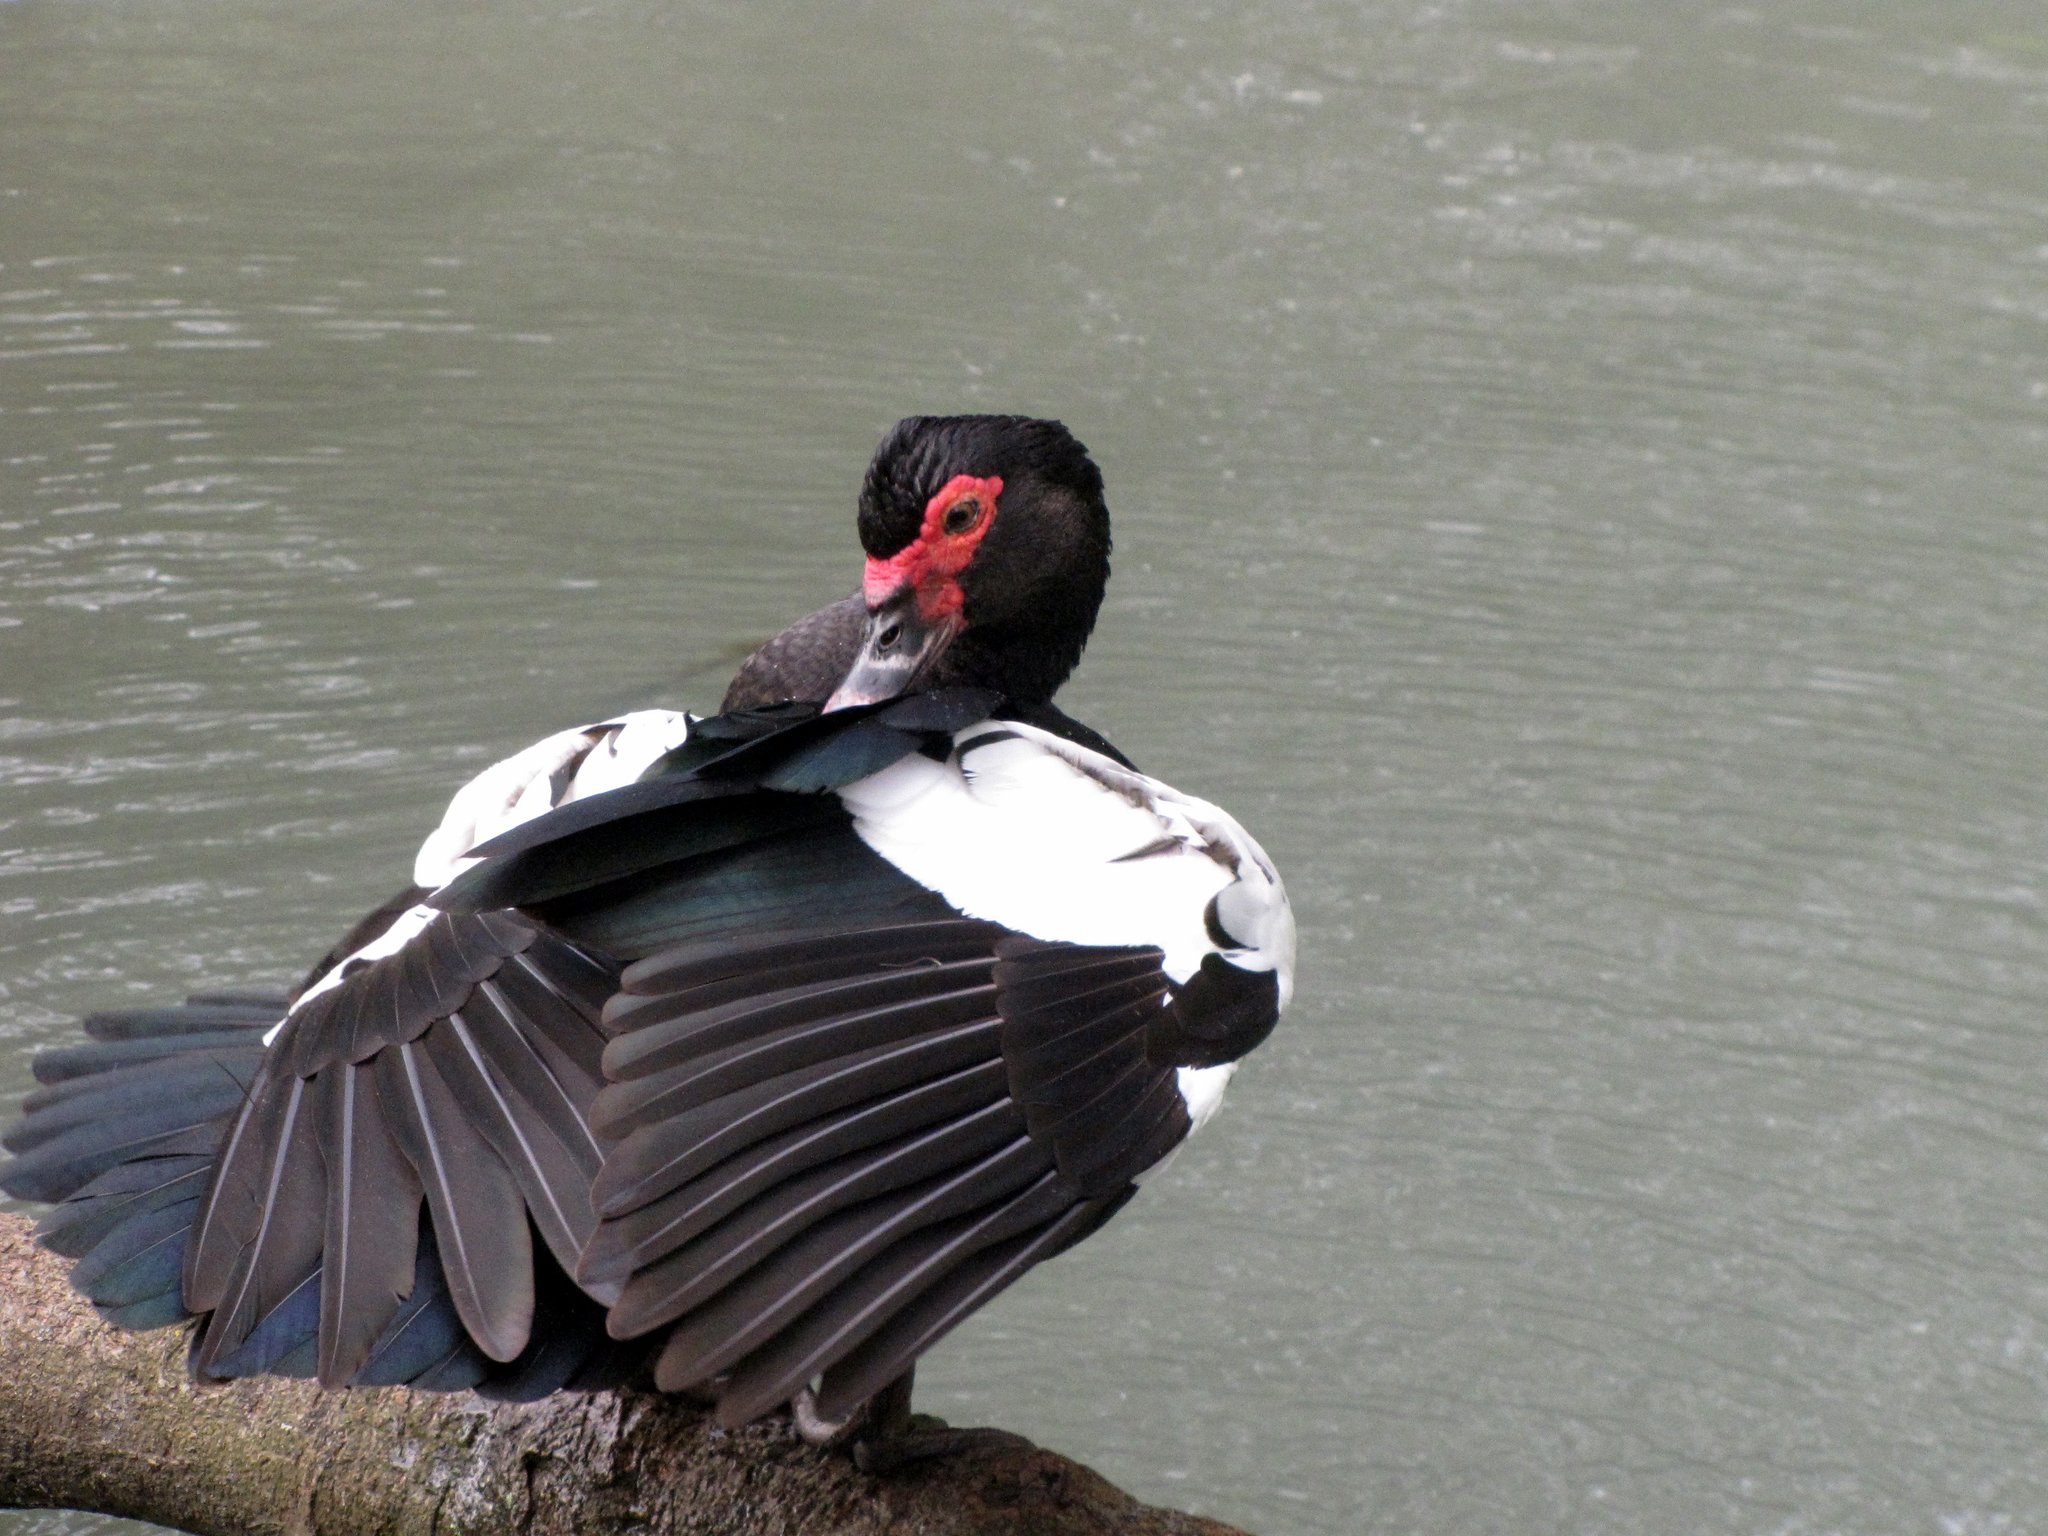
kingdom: Animalia
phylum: Chordata
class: Aves
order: Anseriformes
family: Anatidae
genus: Cairina
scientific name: Cairina moschata
